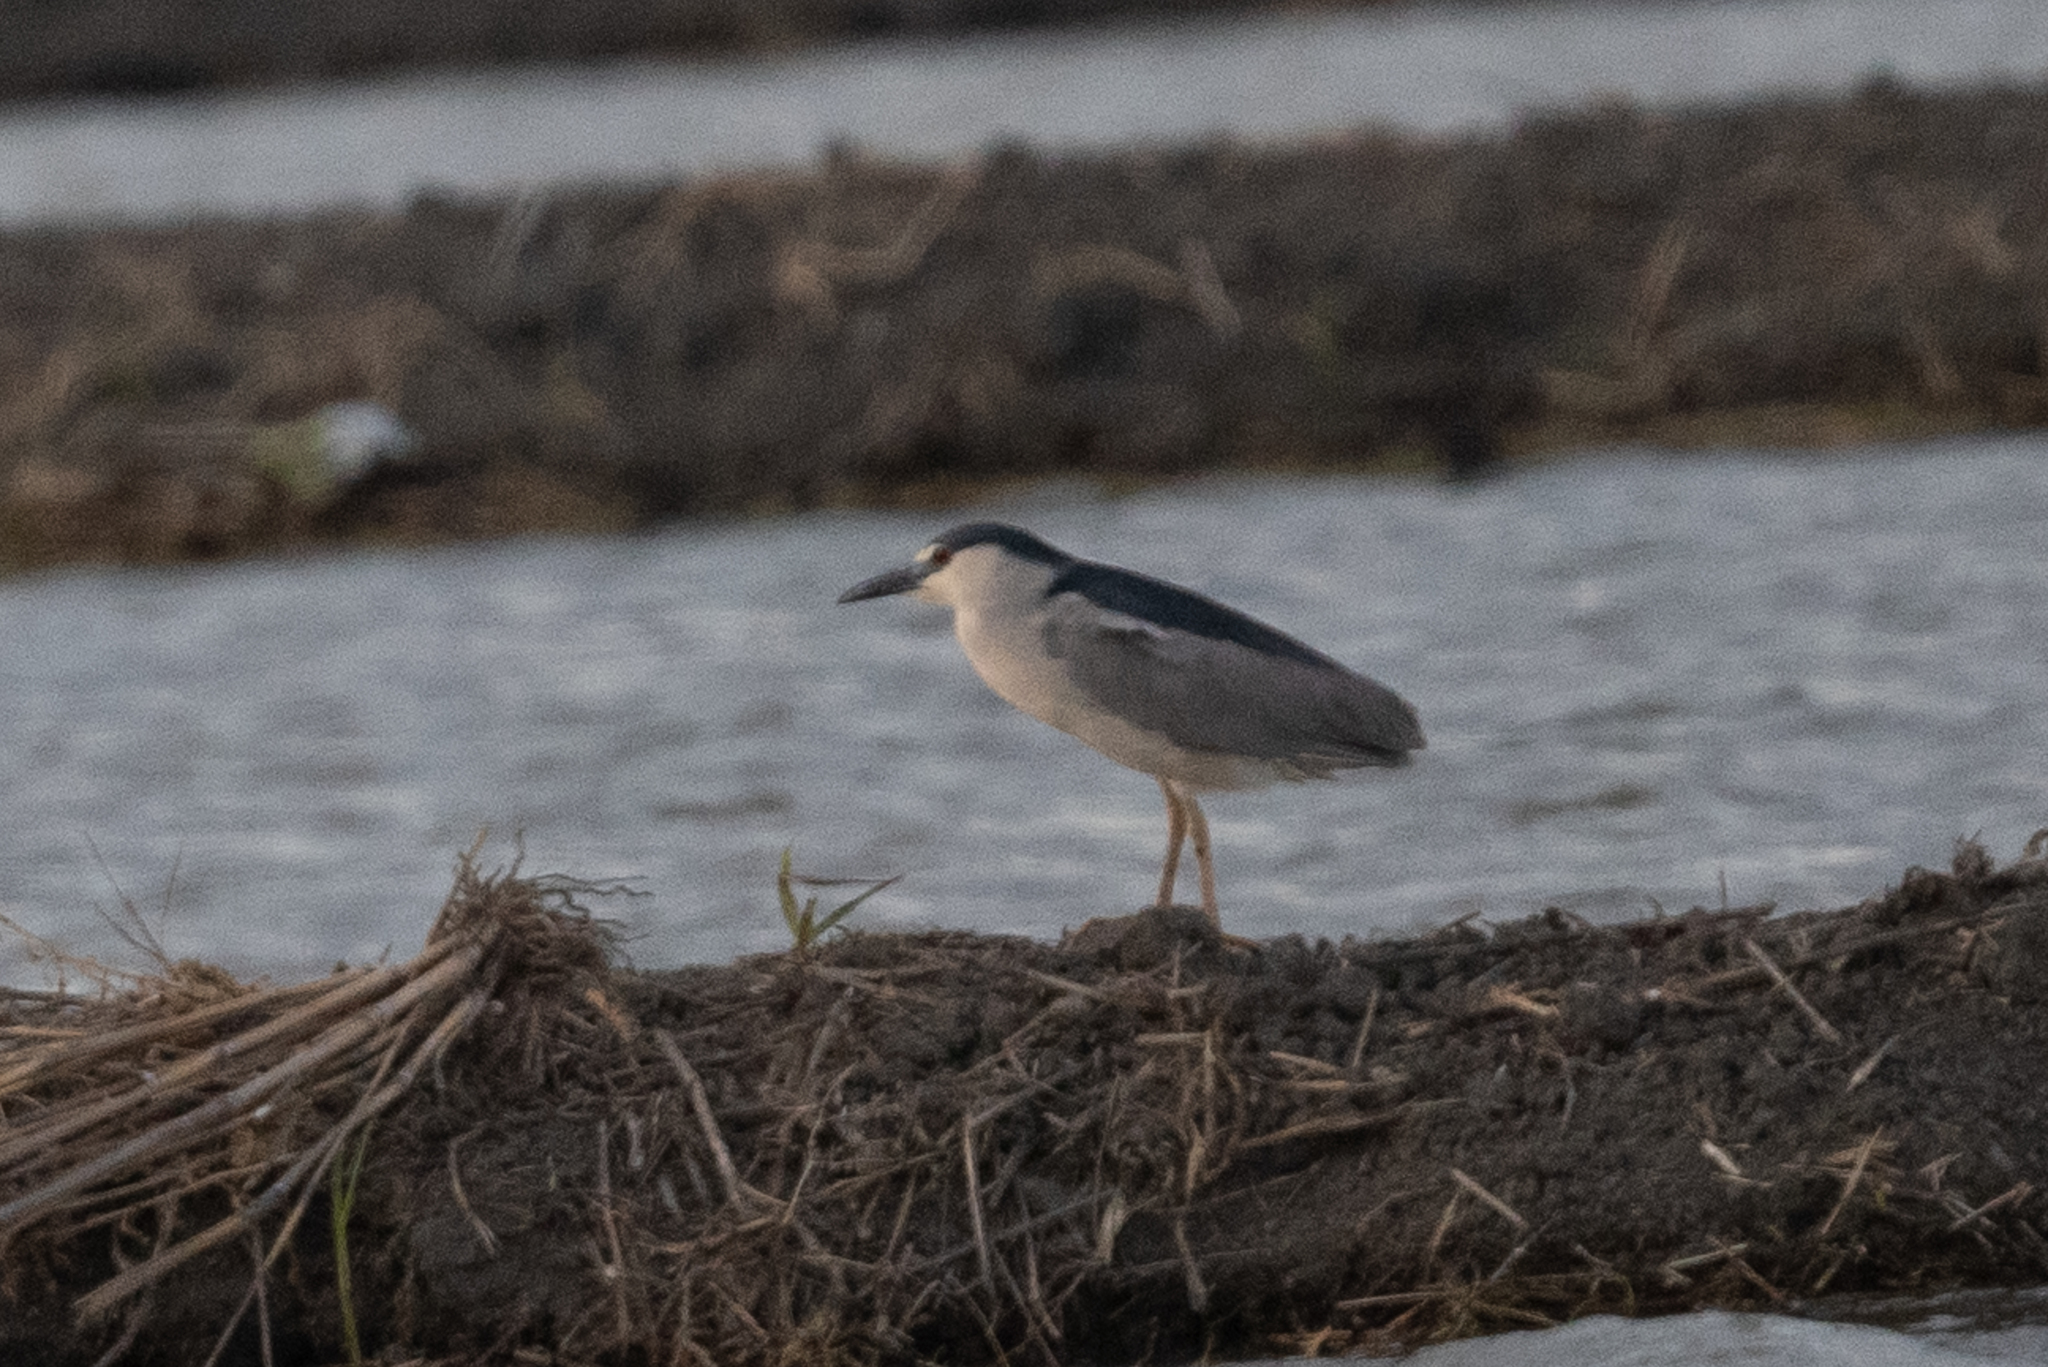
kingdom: Animalia
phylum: Chordata
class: Aves
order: Pelecaniformes
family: Ardeidae
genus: Nycticorax
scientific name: Nycticorax nycticorax
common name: Black-crowned night heron
